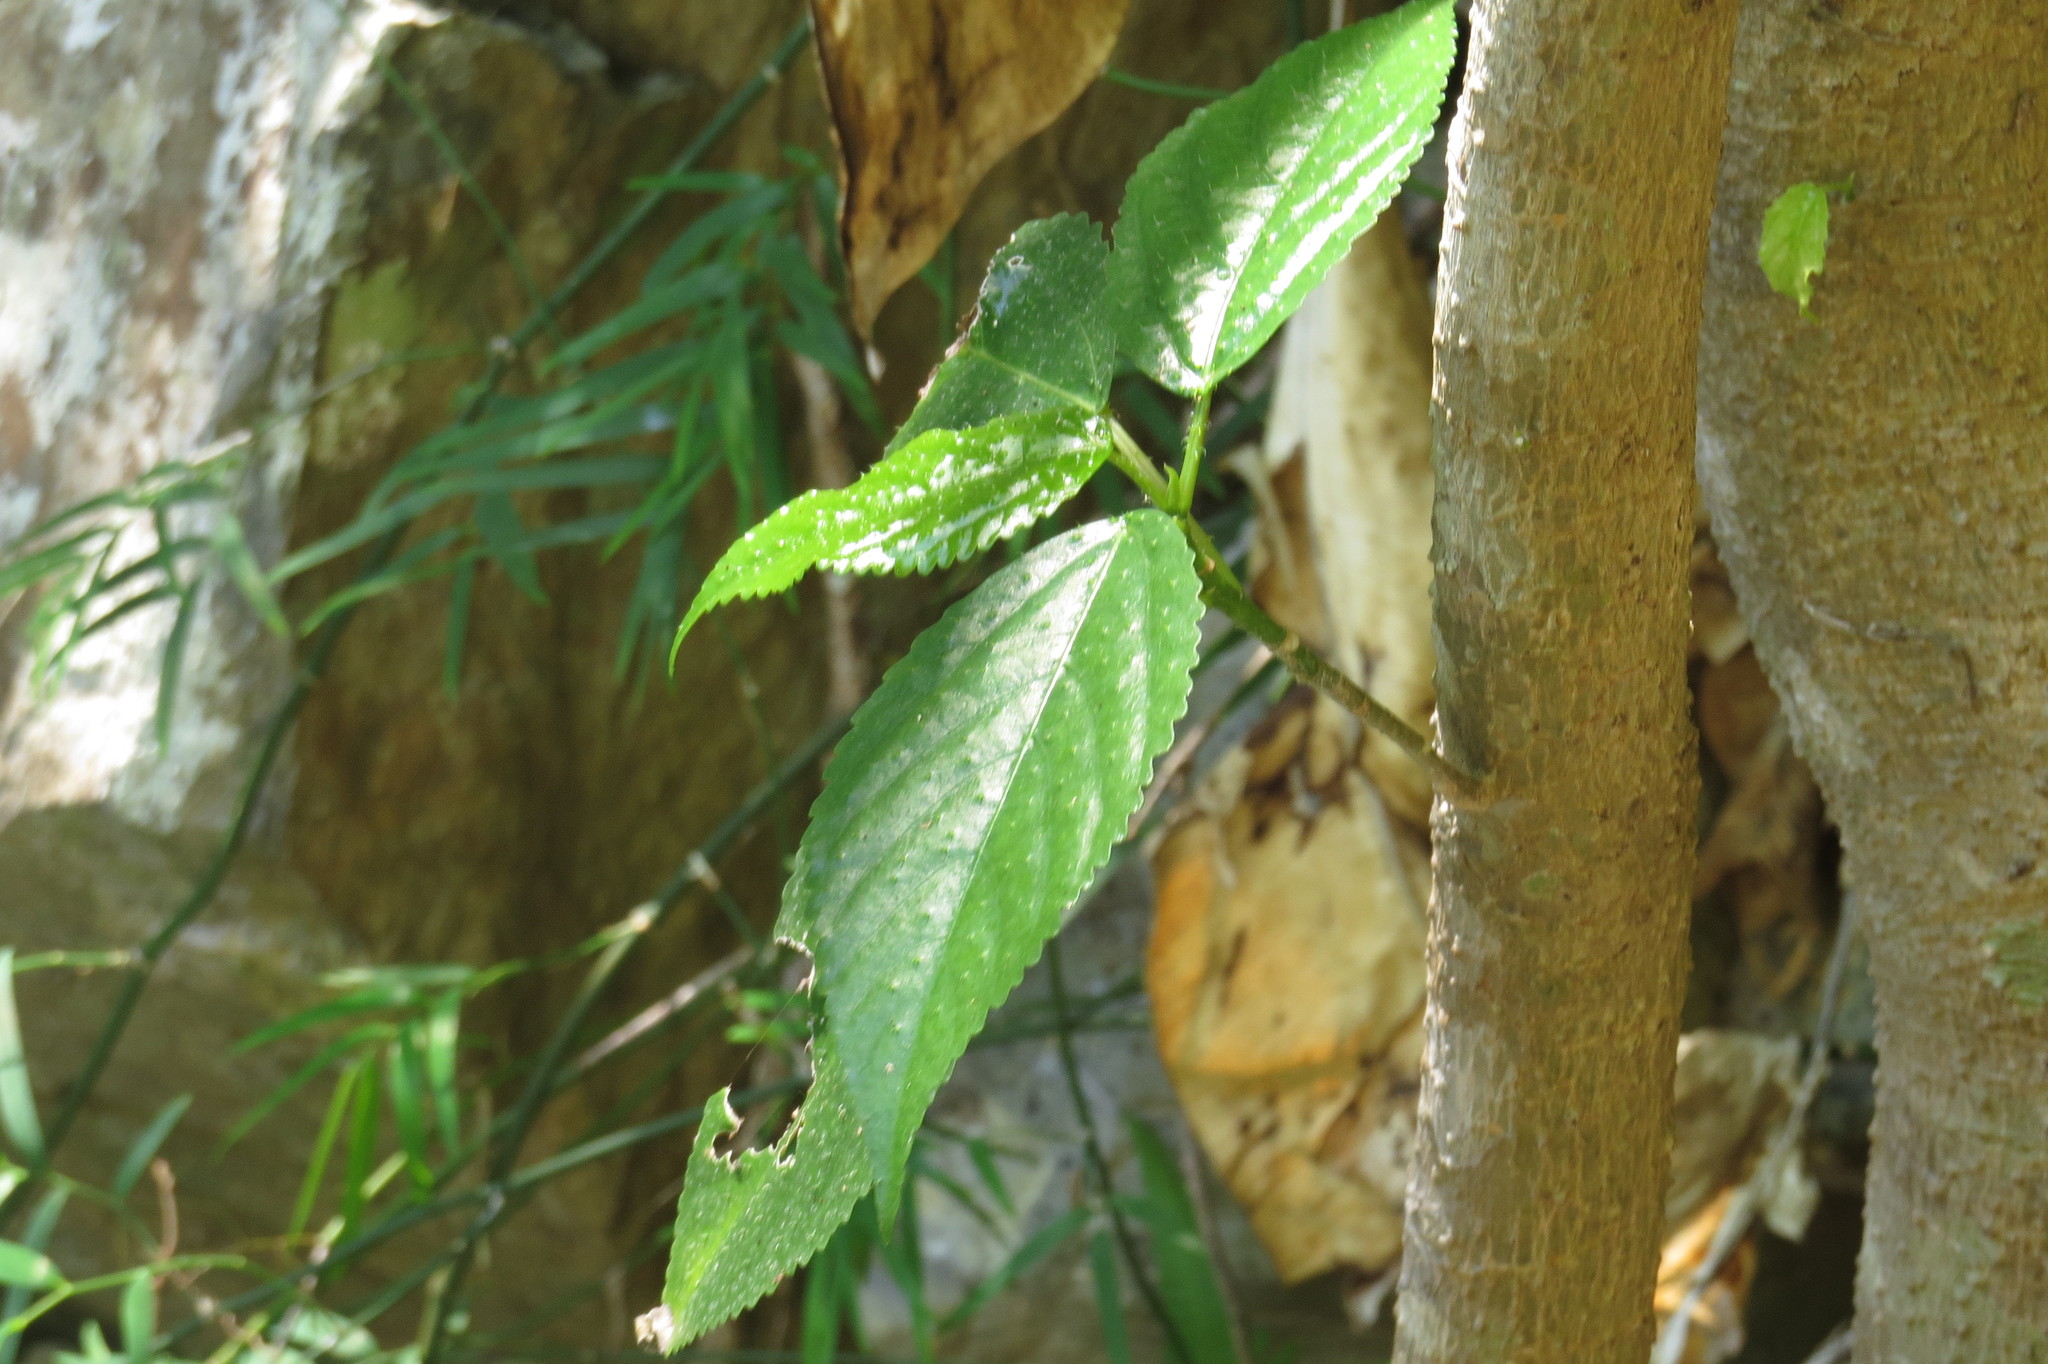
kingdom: Plantae
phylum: Tracheophyta
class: Magnoliopsida
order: Rosales
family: Urticaceae
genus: Dendrocnide
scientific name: Dendrocnide photiniphylla
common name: Shiny-leaved stinging tree
